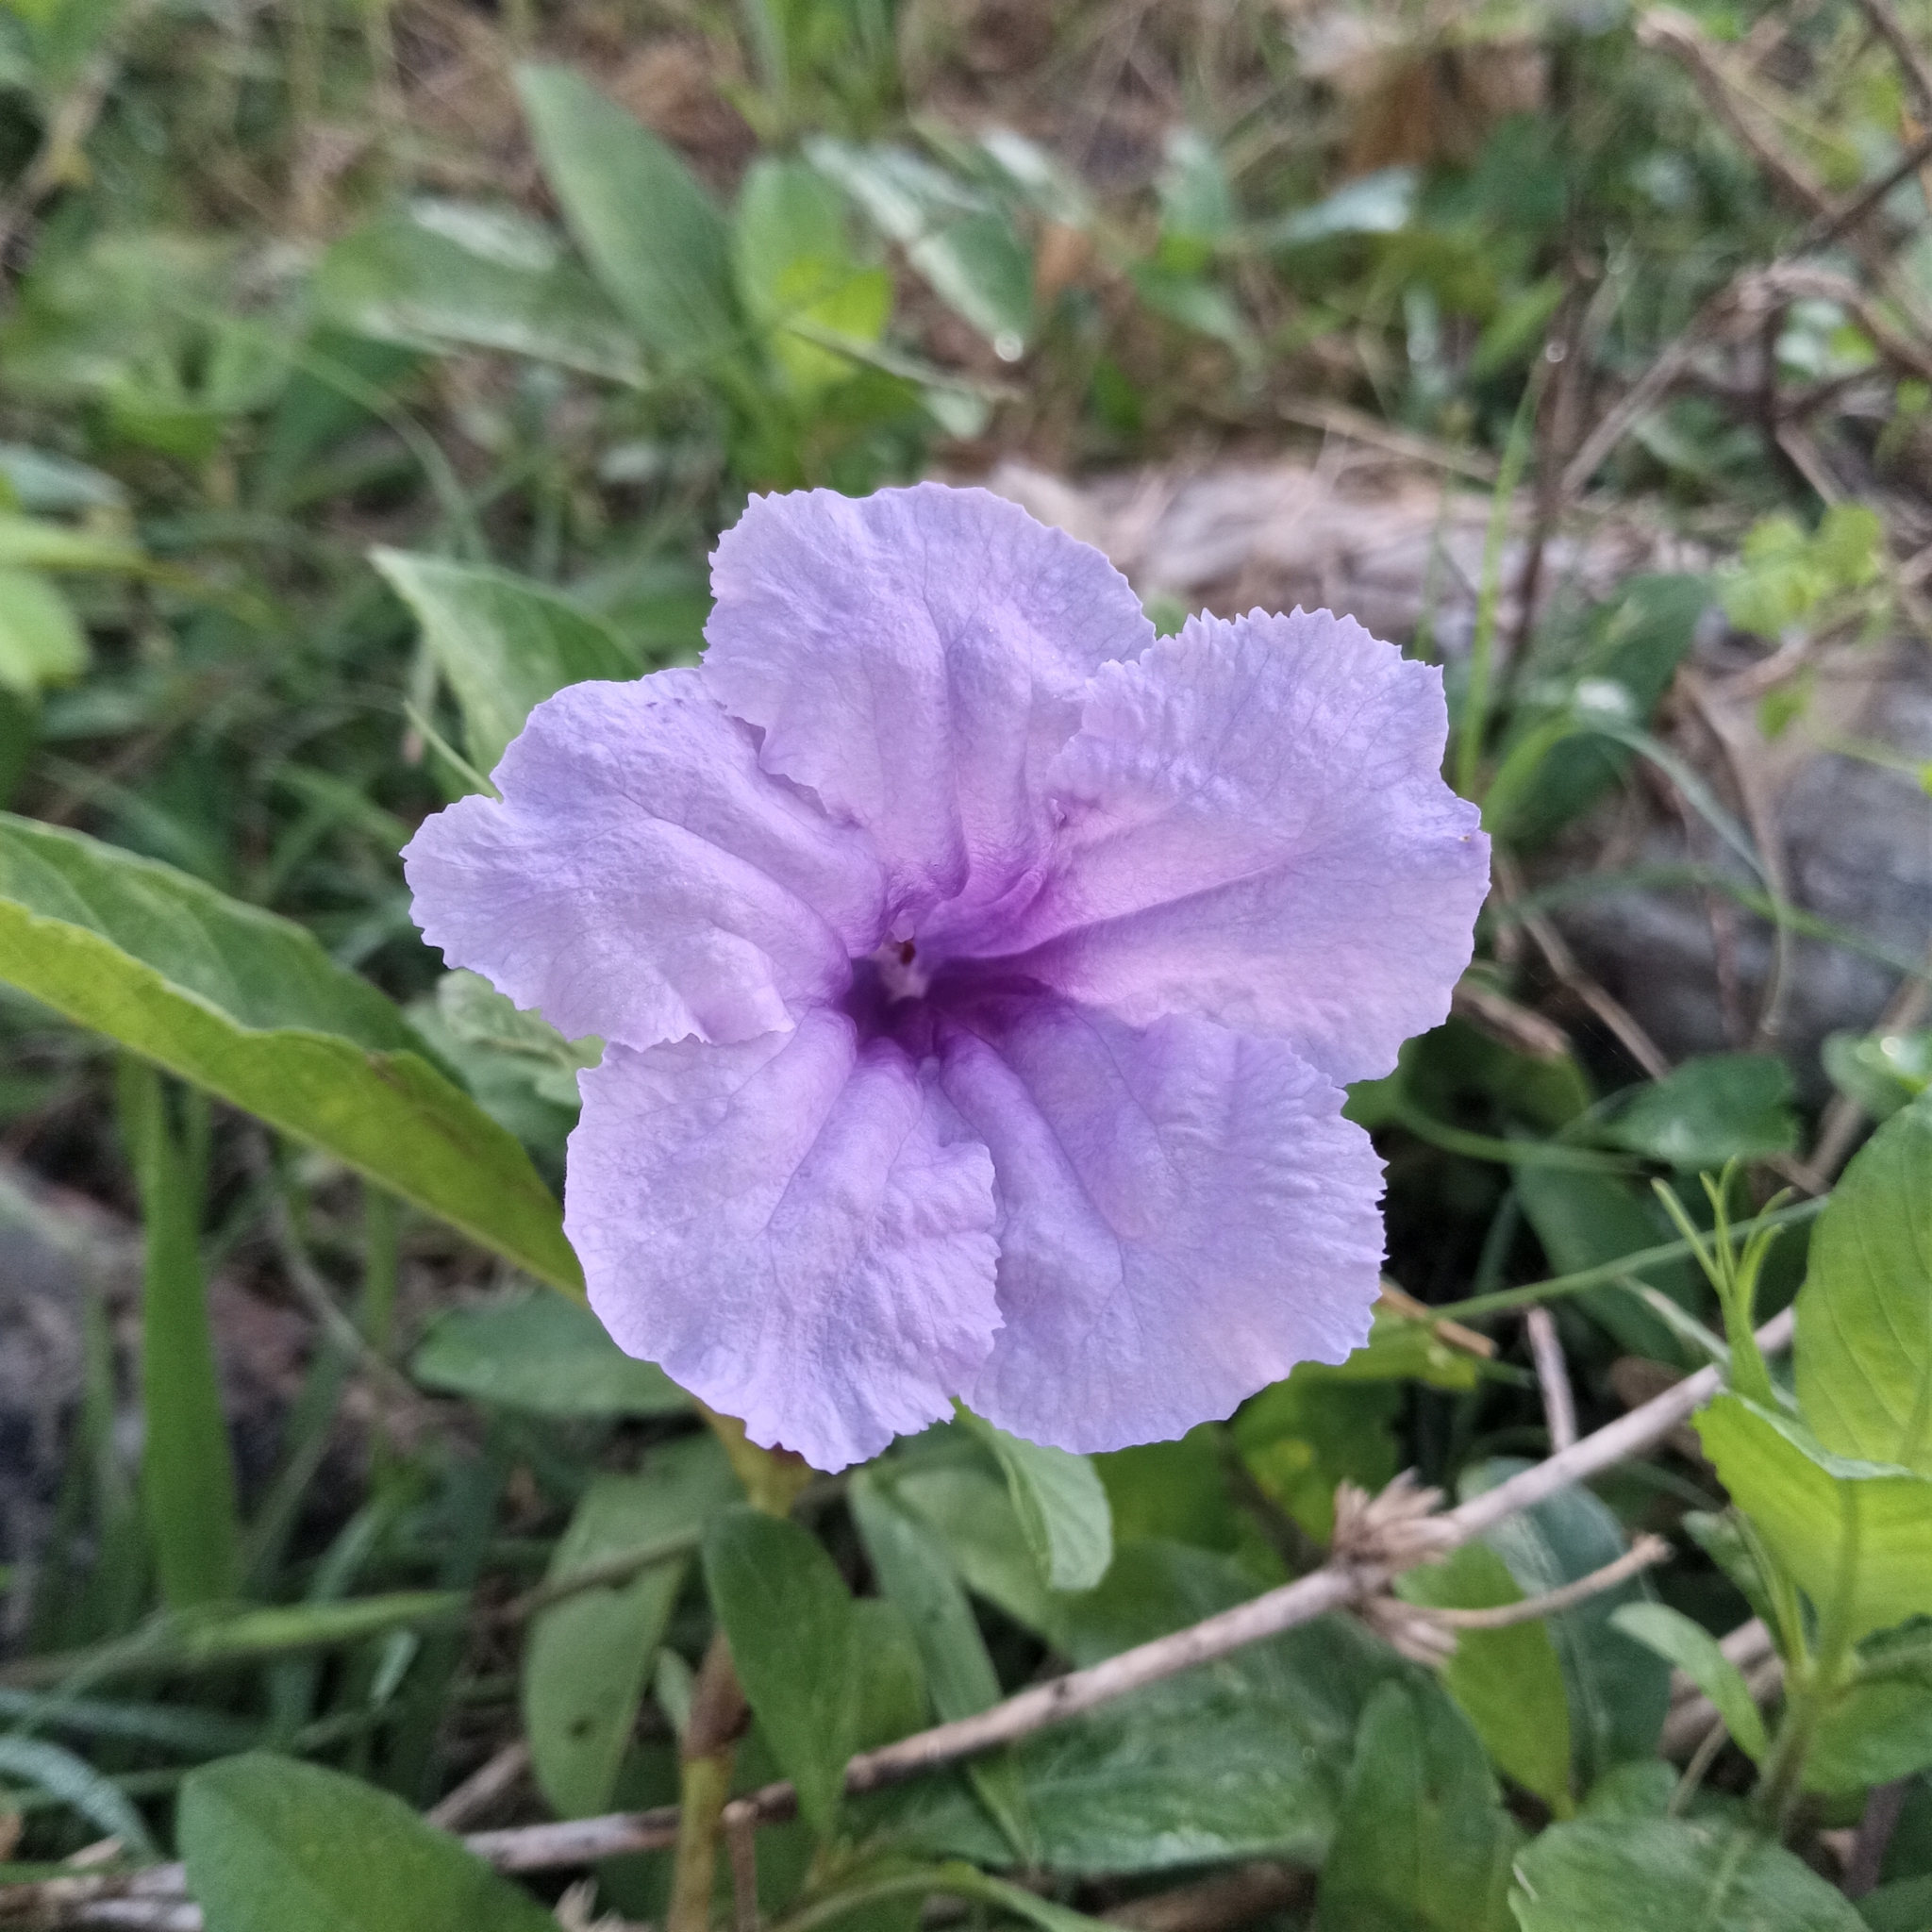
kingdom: Plantae
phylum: Tracheophyta
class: Magnoliopsida
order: Lamiales
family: Acanthaceae
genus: Ruellia
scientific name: Ruellia tuberosa
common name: Devil's bit
